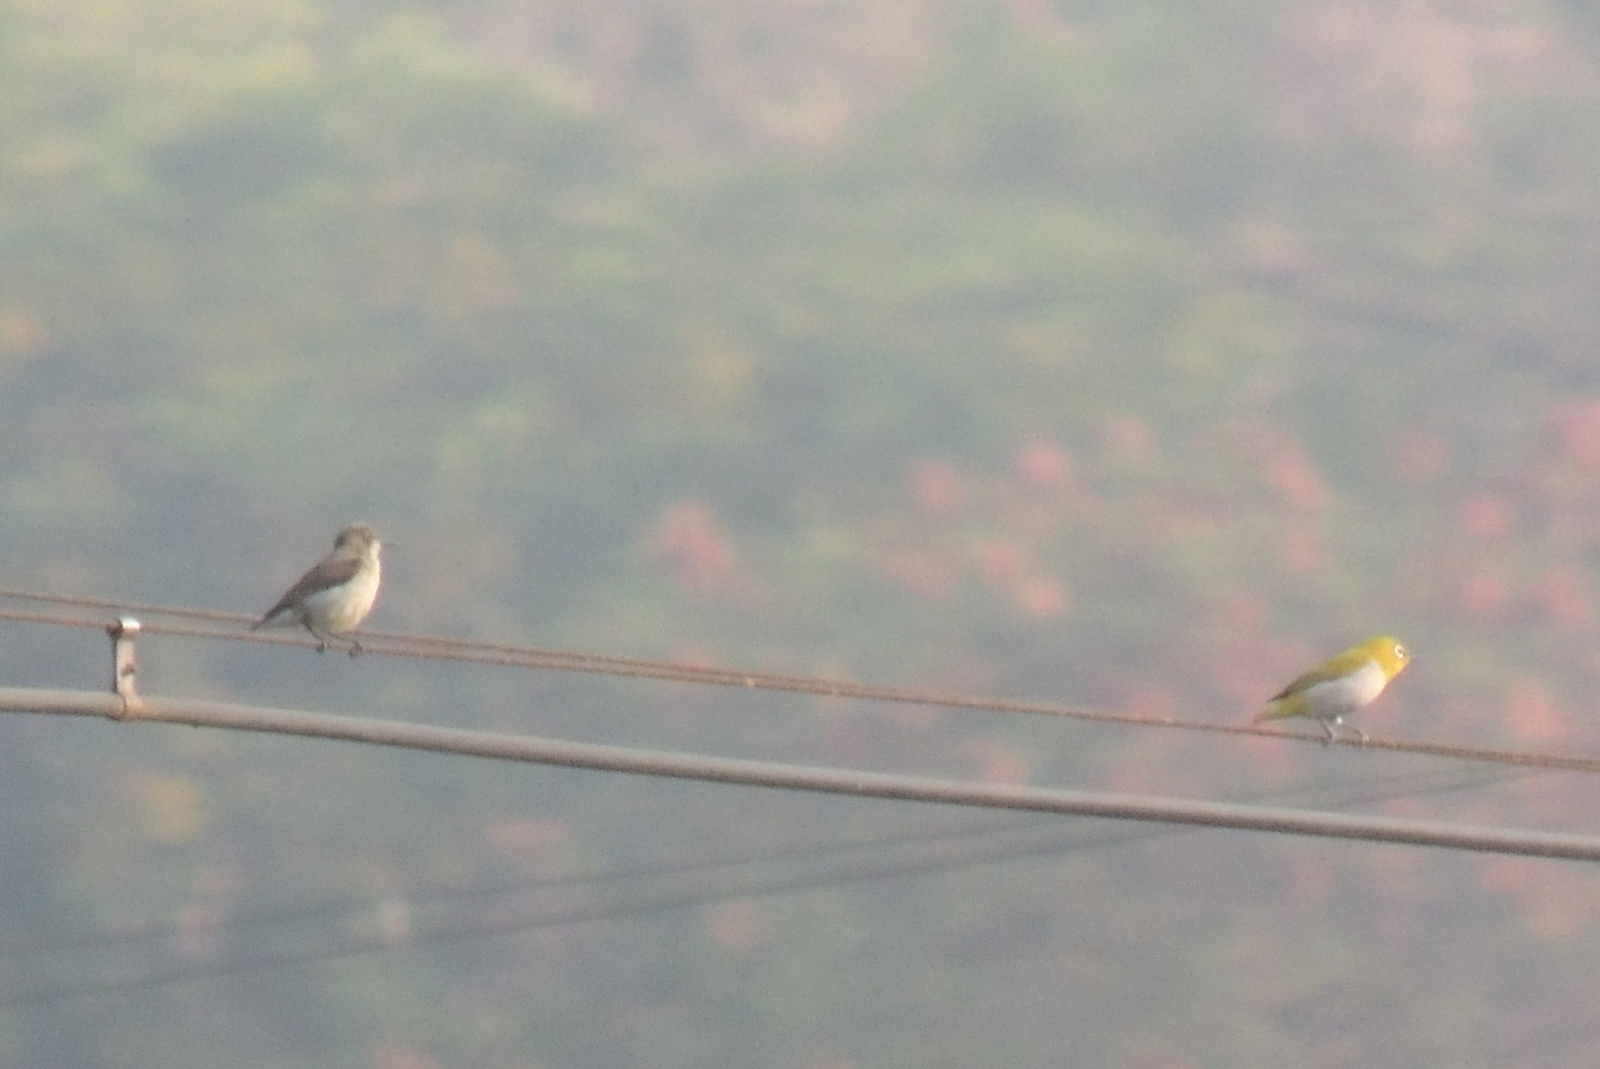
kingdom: Animalia
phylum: Chordata
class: Aves
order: Passeriformes
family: Zosteropidae
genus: Zosterops
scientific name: Zosterops palpebrosus
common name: Oriental white-eye
